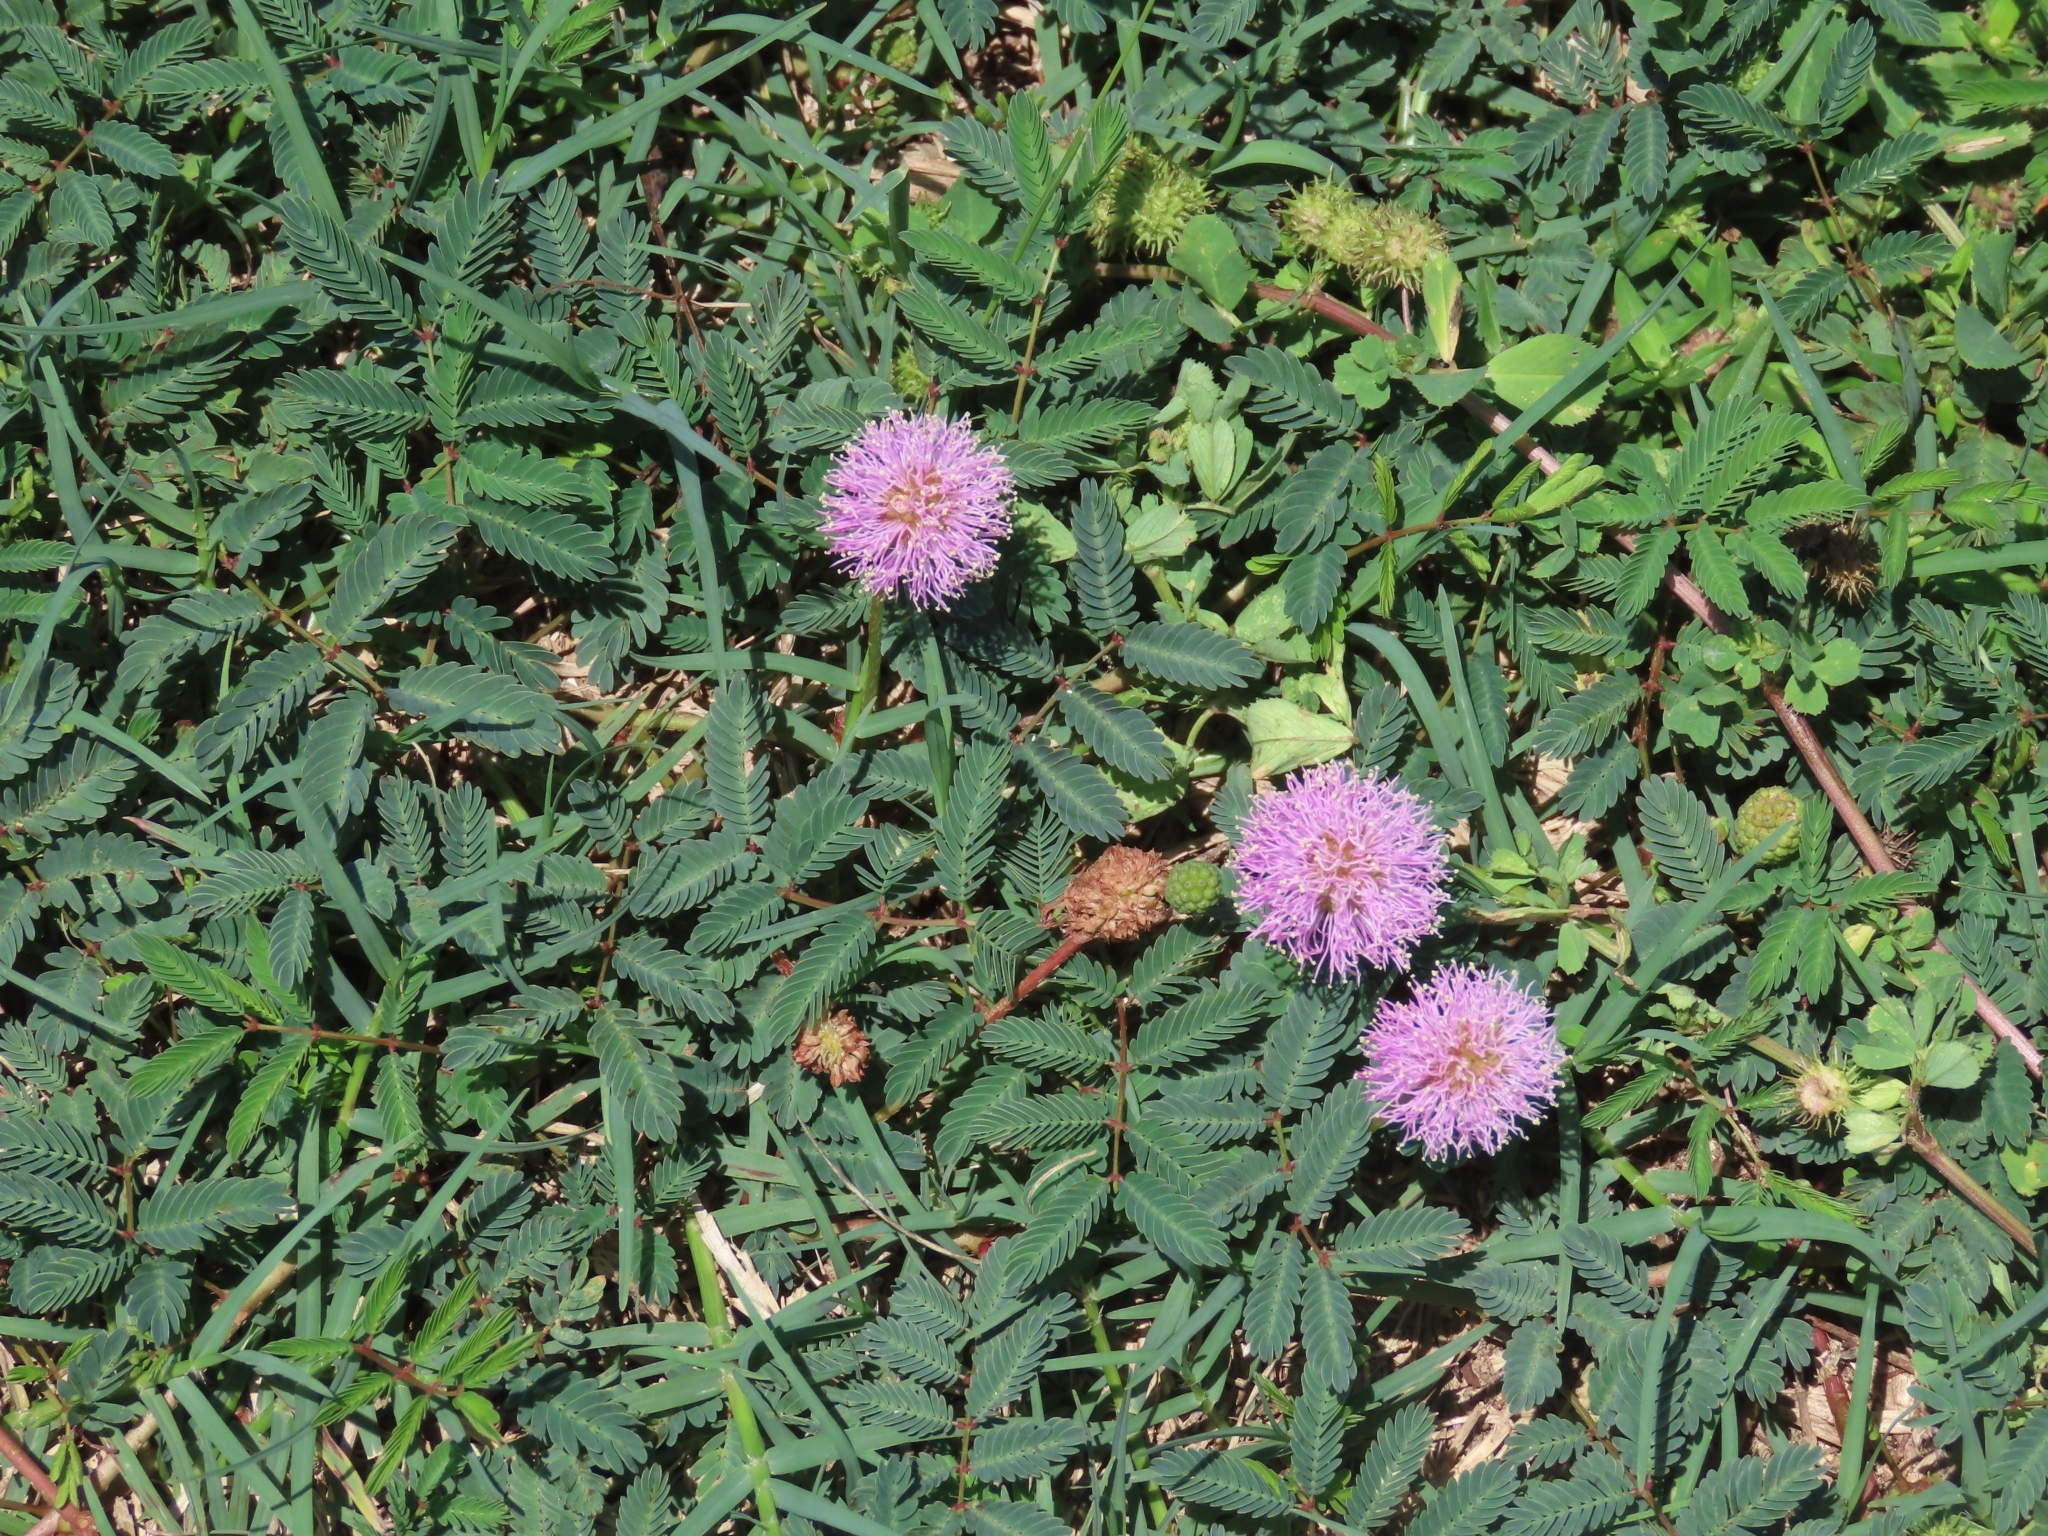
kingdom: Plantae
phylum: Tracheophyta
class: Magnoliopsida
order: Fabales
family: Fabaceae
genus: Mimosa
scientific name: Mimosa strigillosa
